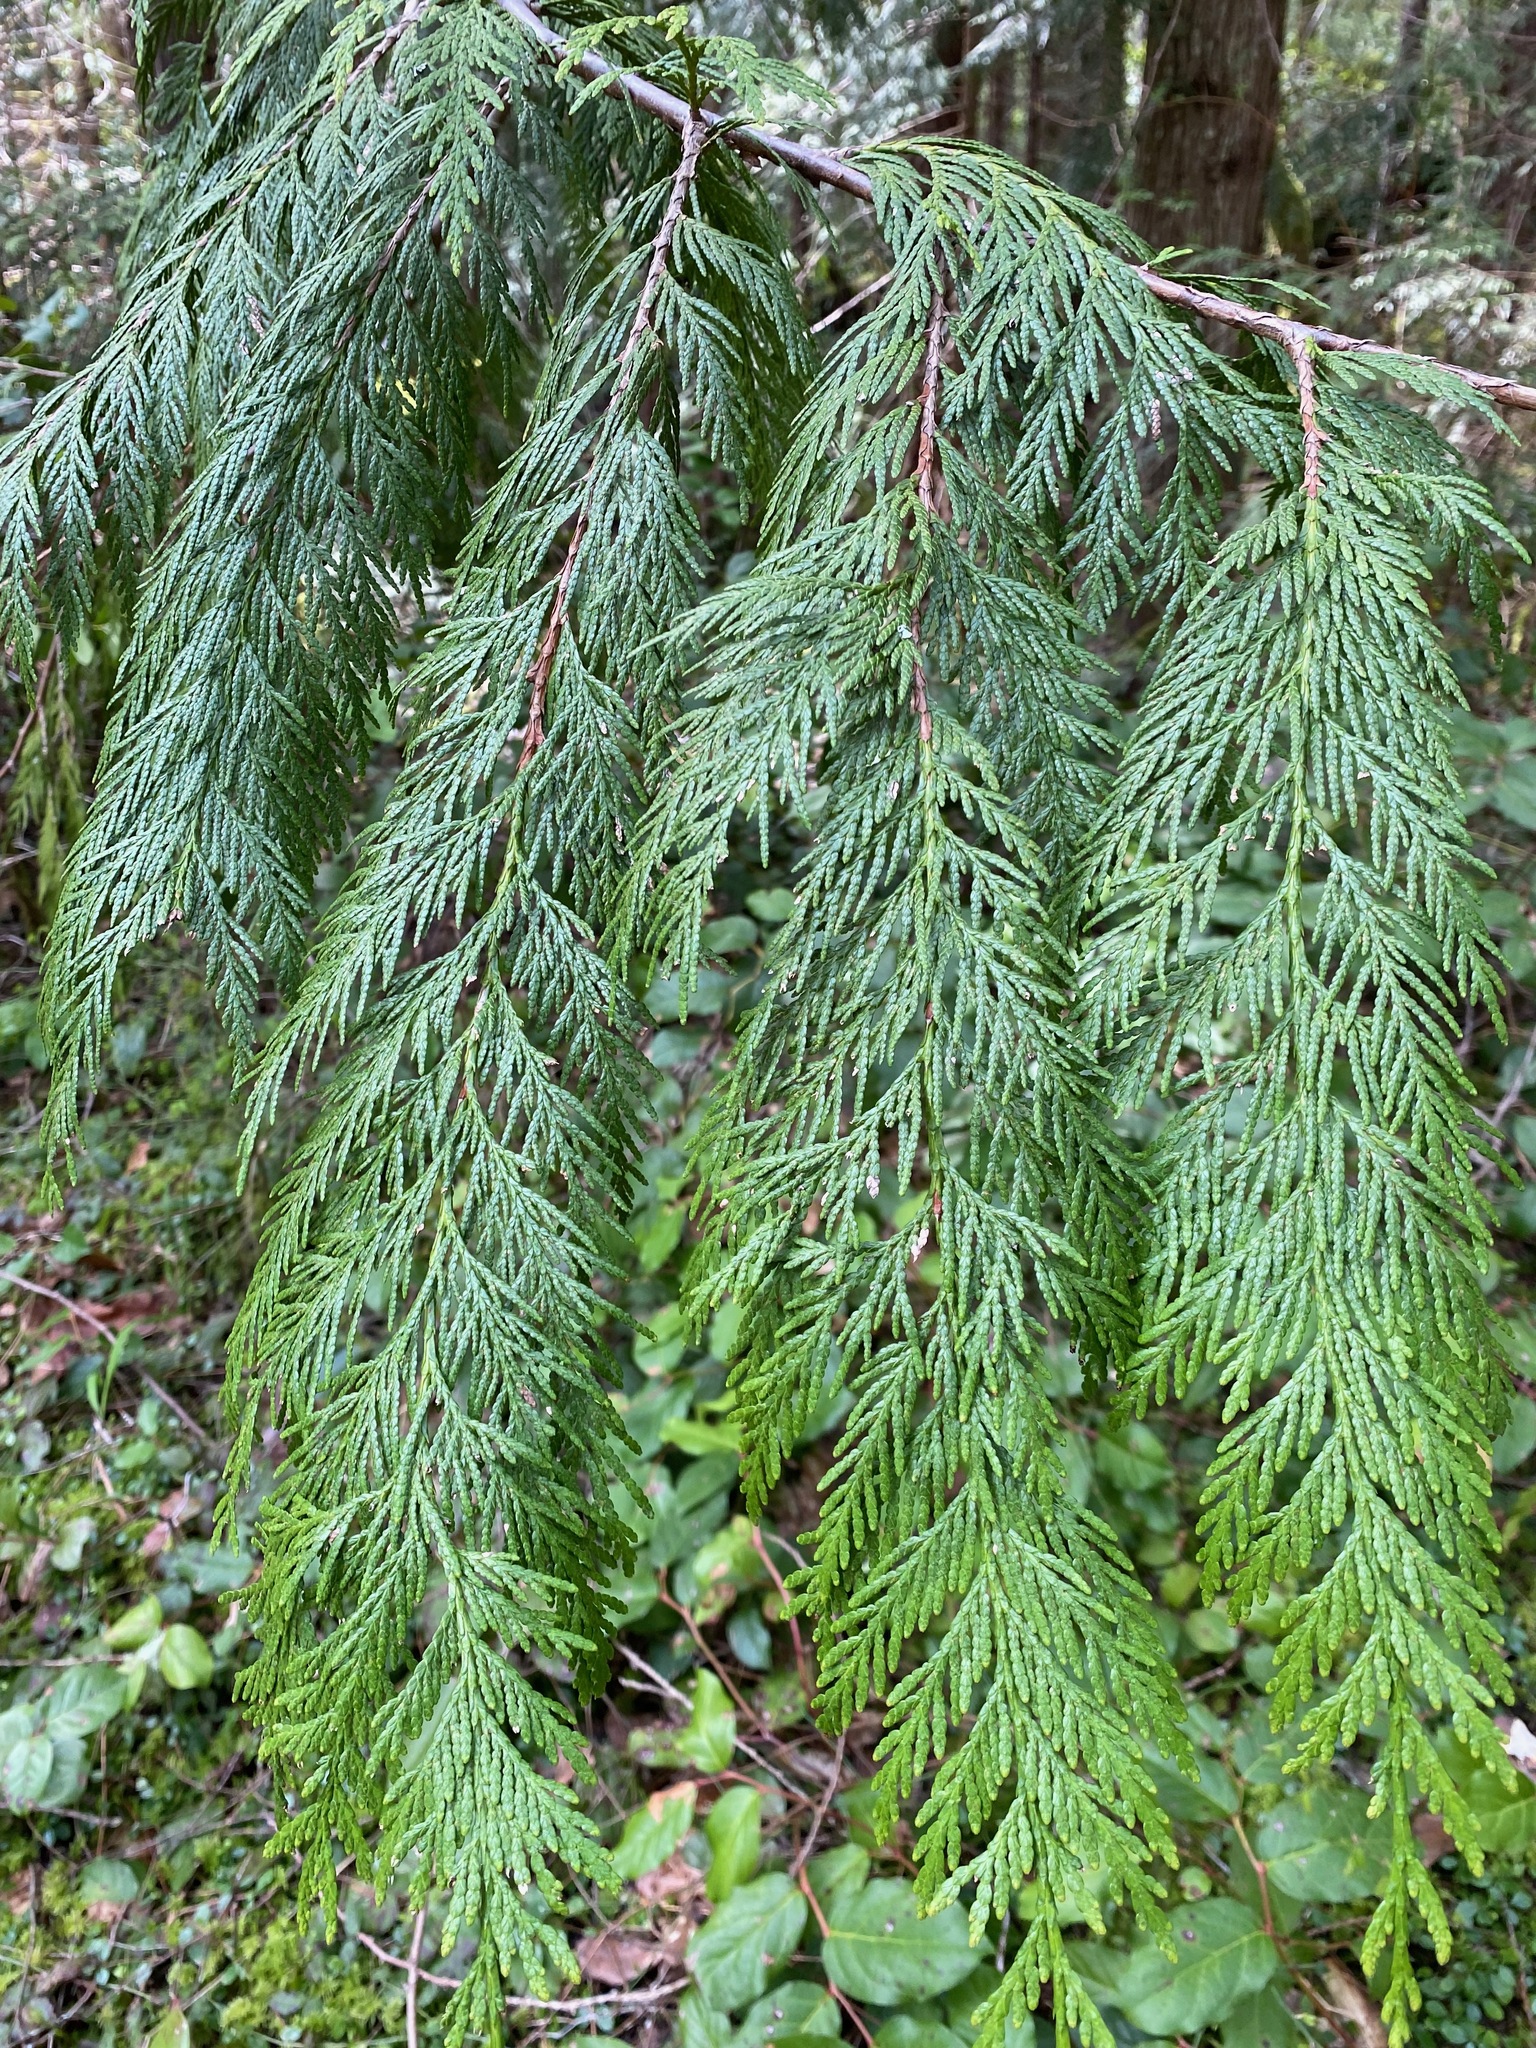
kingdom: Plantae
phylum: Tracheophyta
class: Pinopsida
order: Pinales
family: Cupressaceae
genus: Thuja
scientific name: Thuja plicata
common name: Western red-cedar
